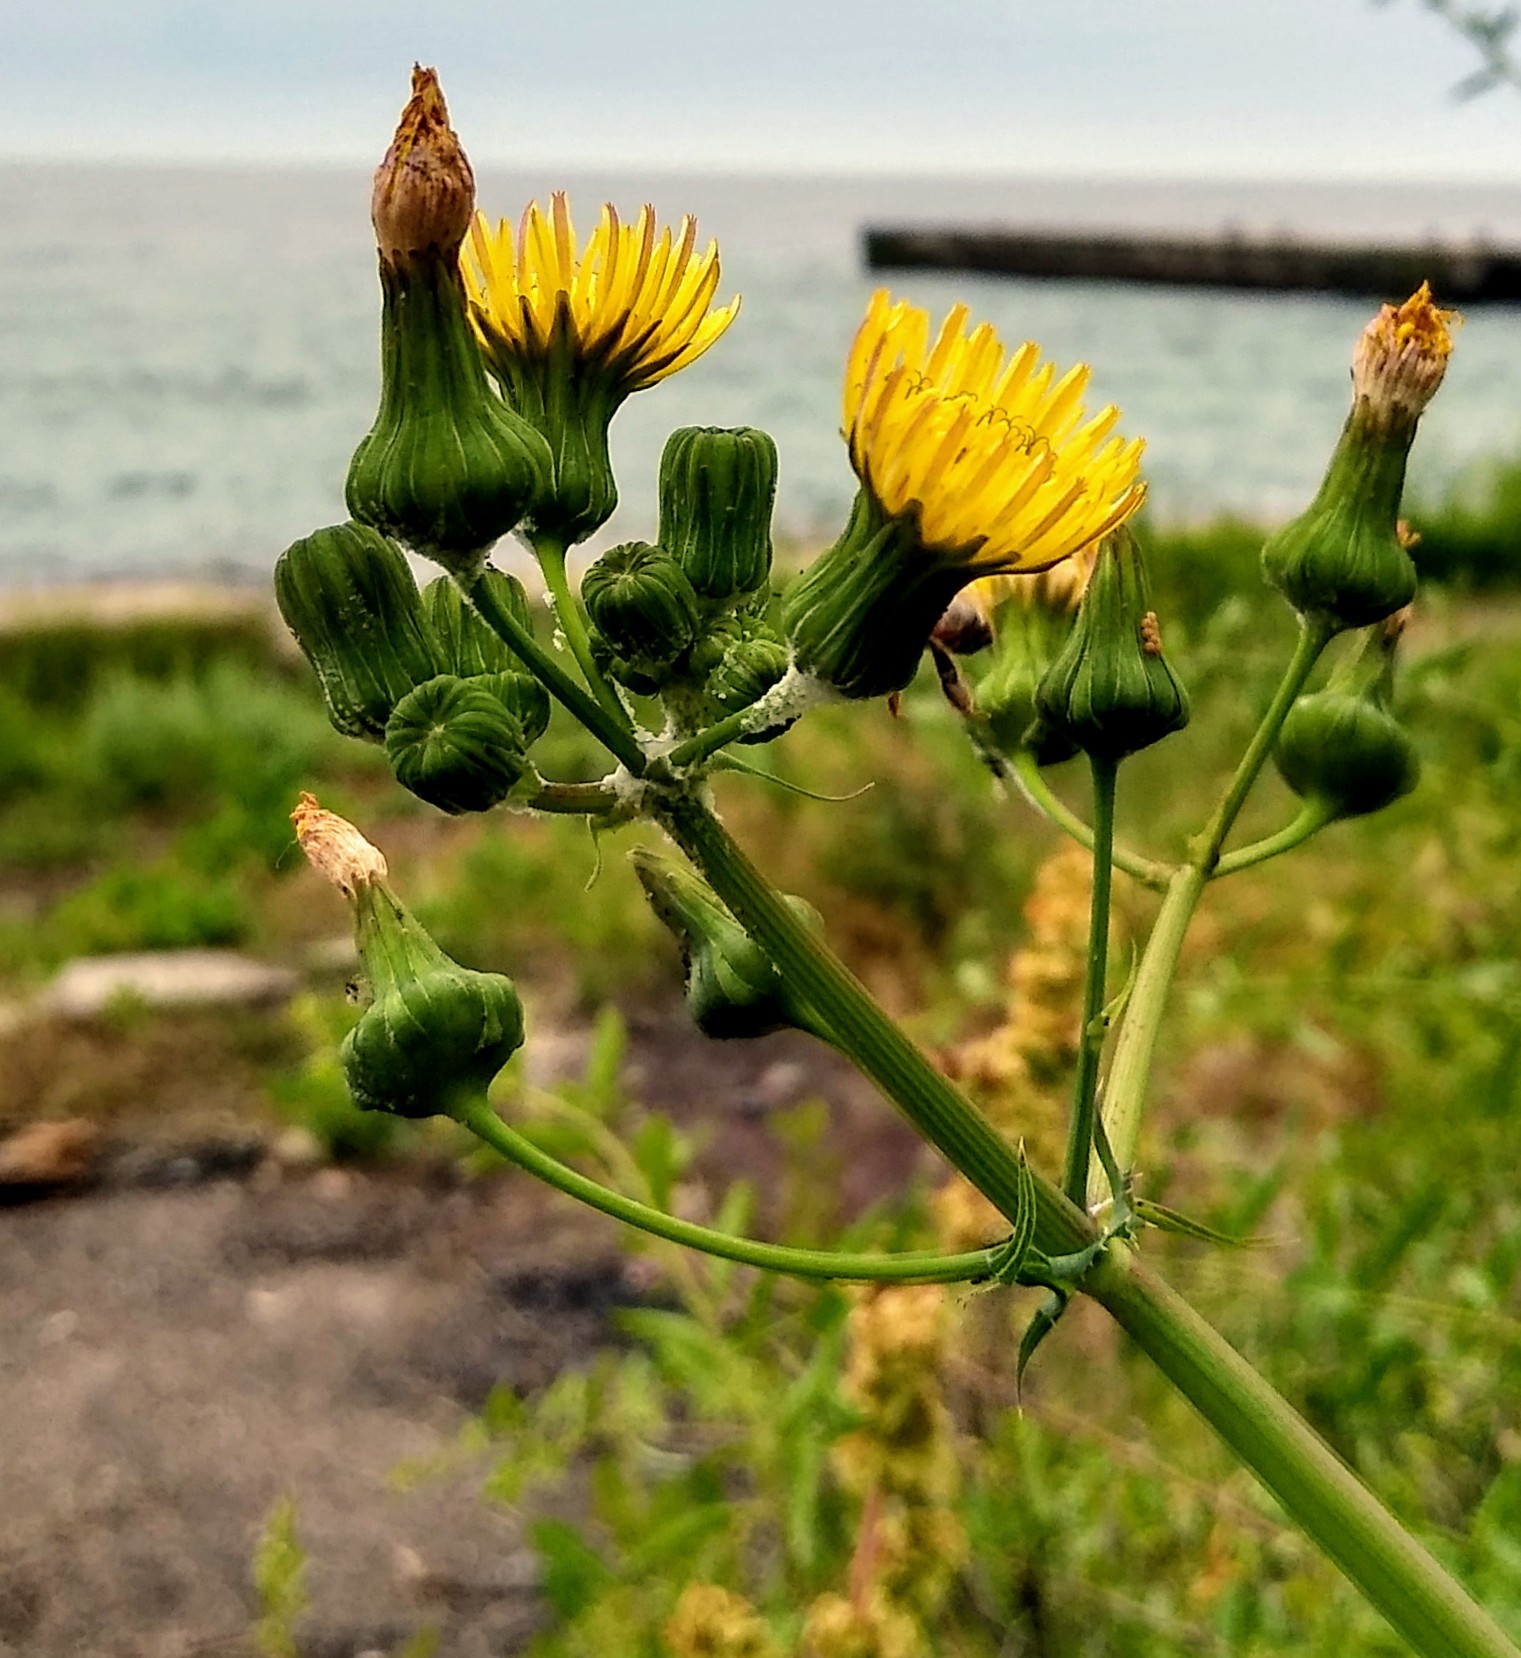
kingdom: Plantae
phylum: Tracheophyta
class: Magnoliopsida
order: Asterales
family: Asteraceae
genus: Sonchus
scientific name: Sonchus oleraceus
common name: Common sowthistle
